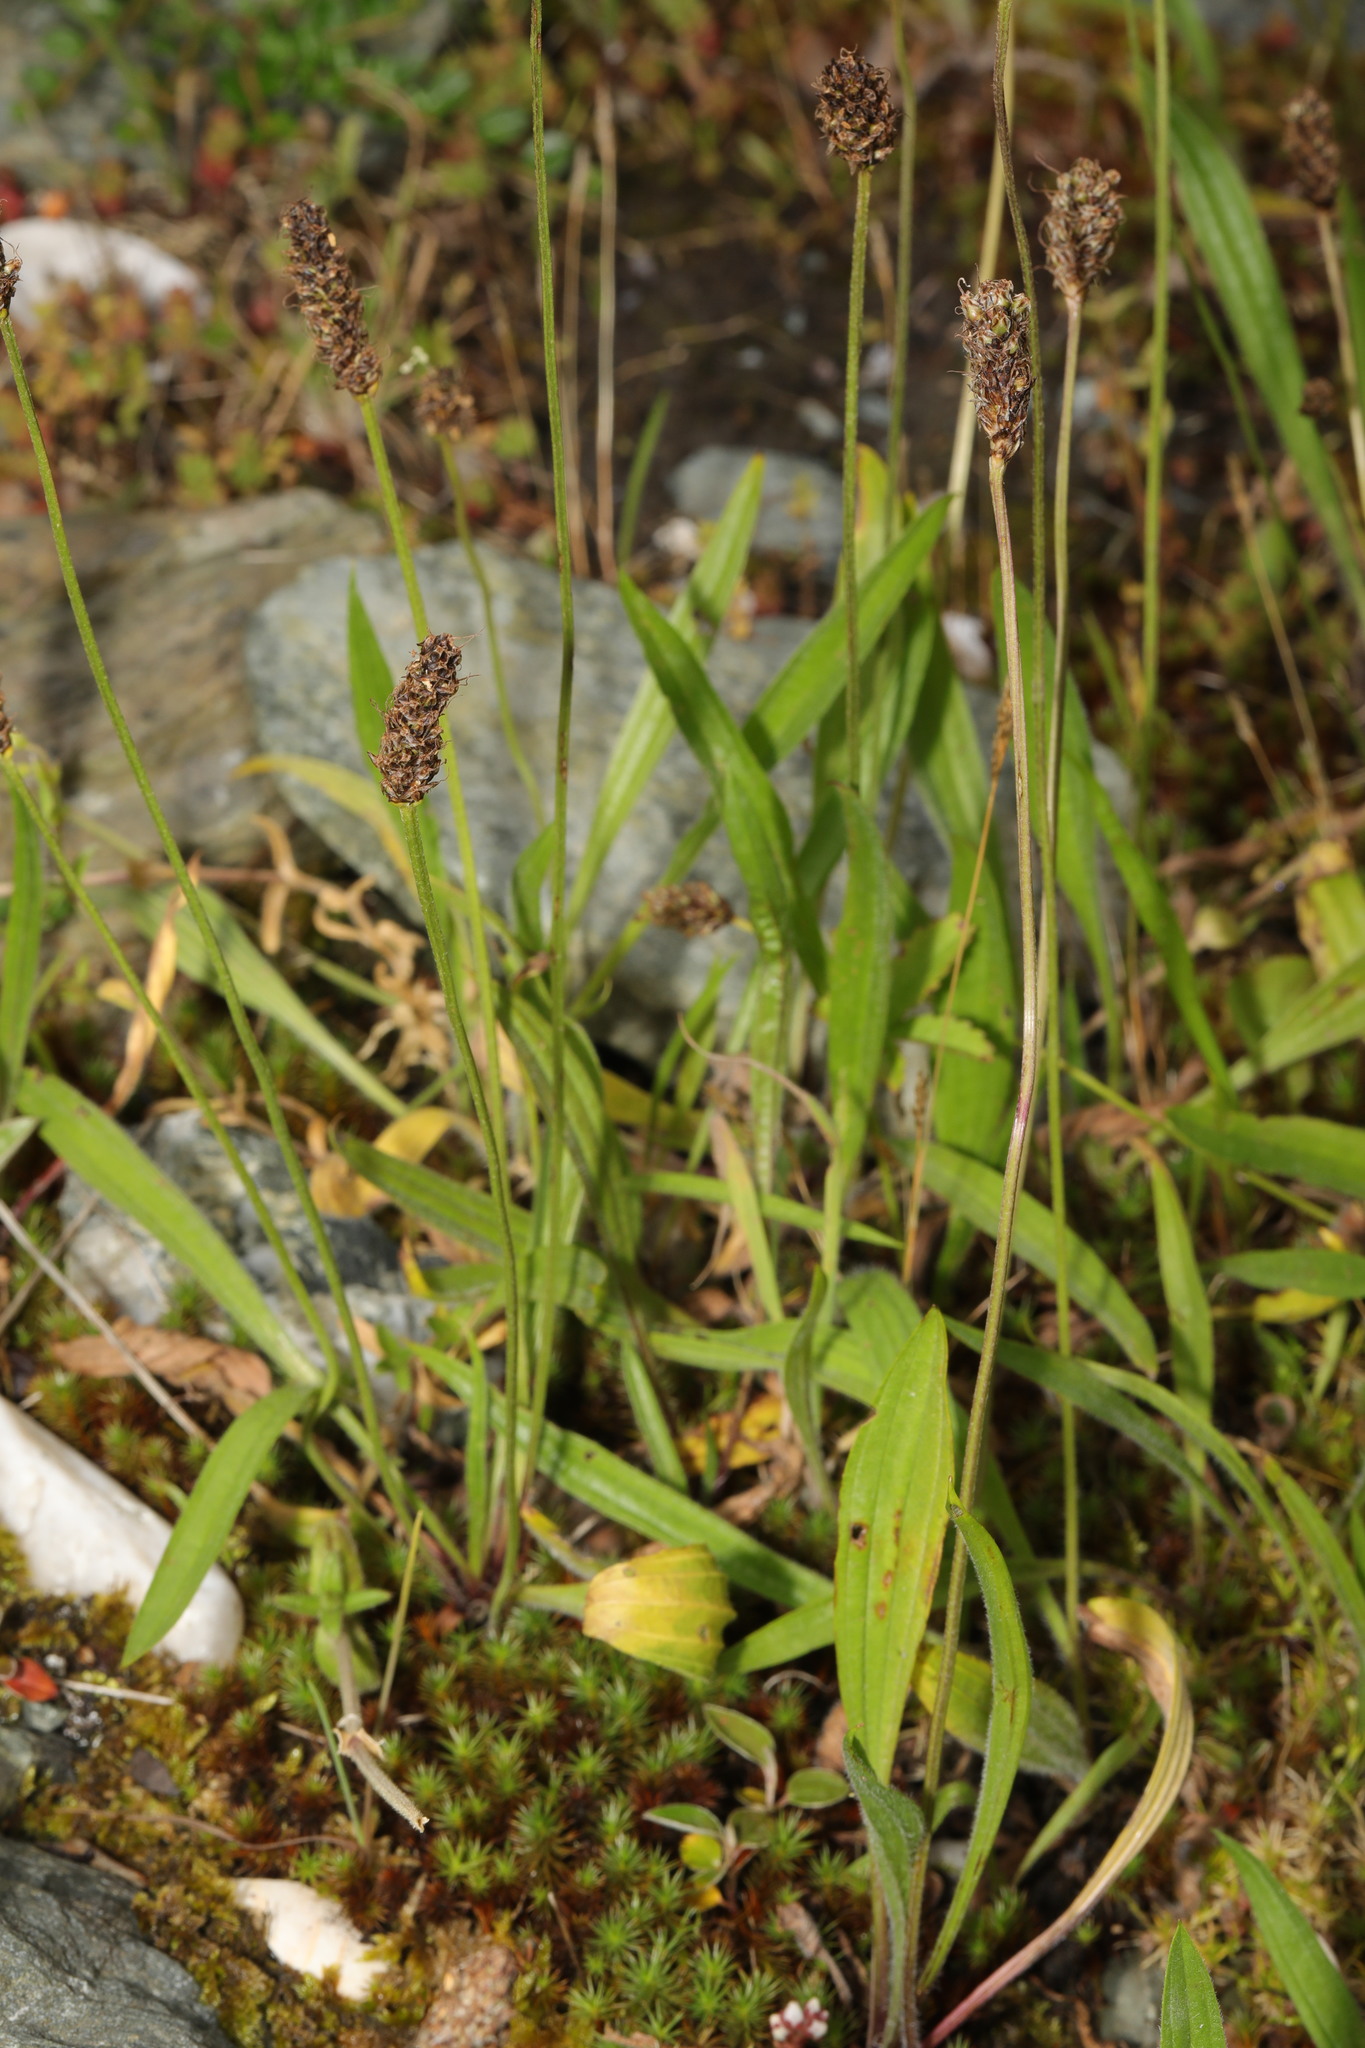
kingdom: Plantae
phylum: Tracheophyta
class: Magnoliopsida
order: Lamiales
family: Plantaginaceae
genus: Plantago
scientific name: Plantago lanceolata
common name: Ribwort plantain
